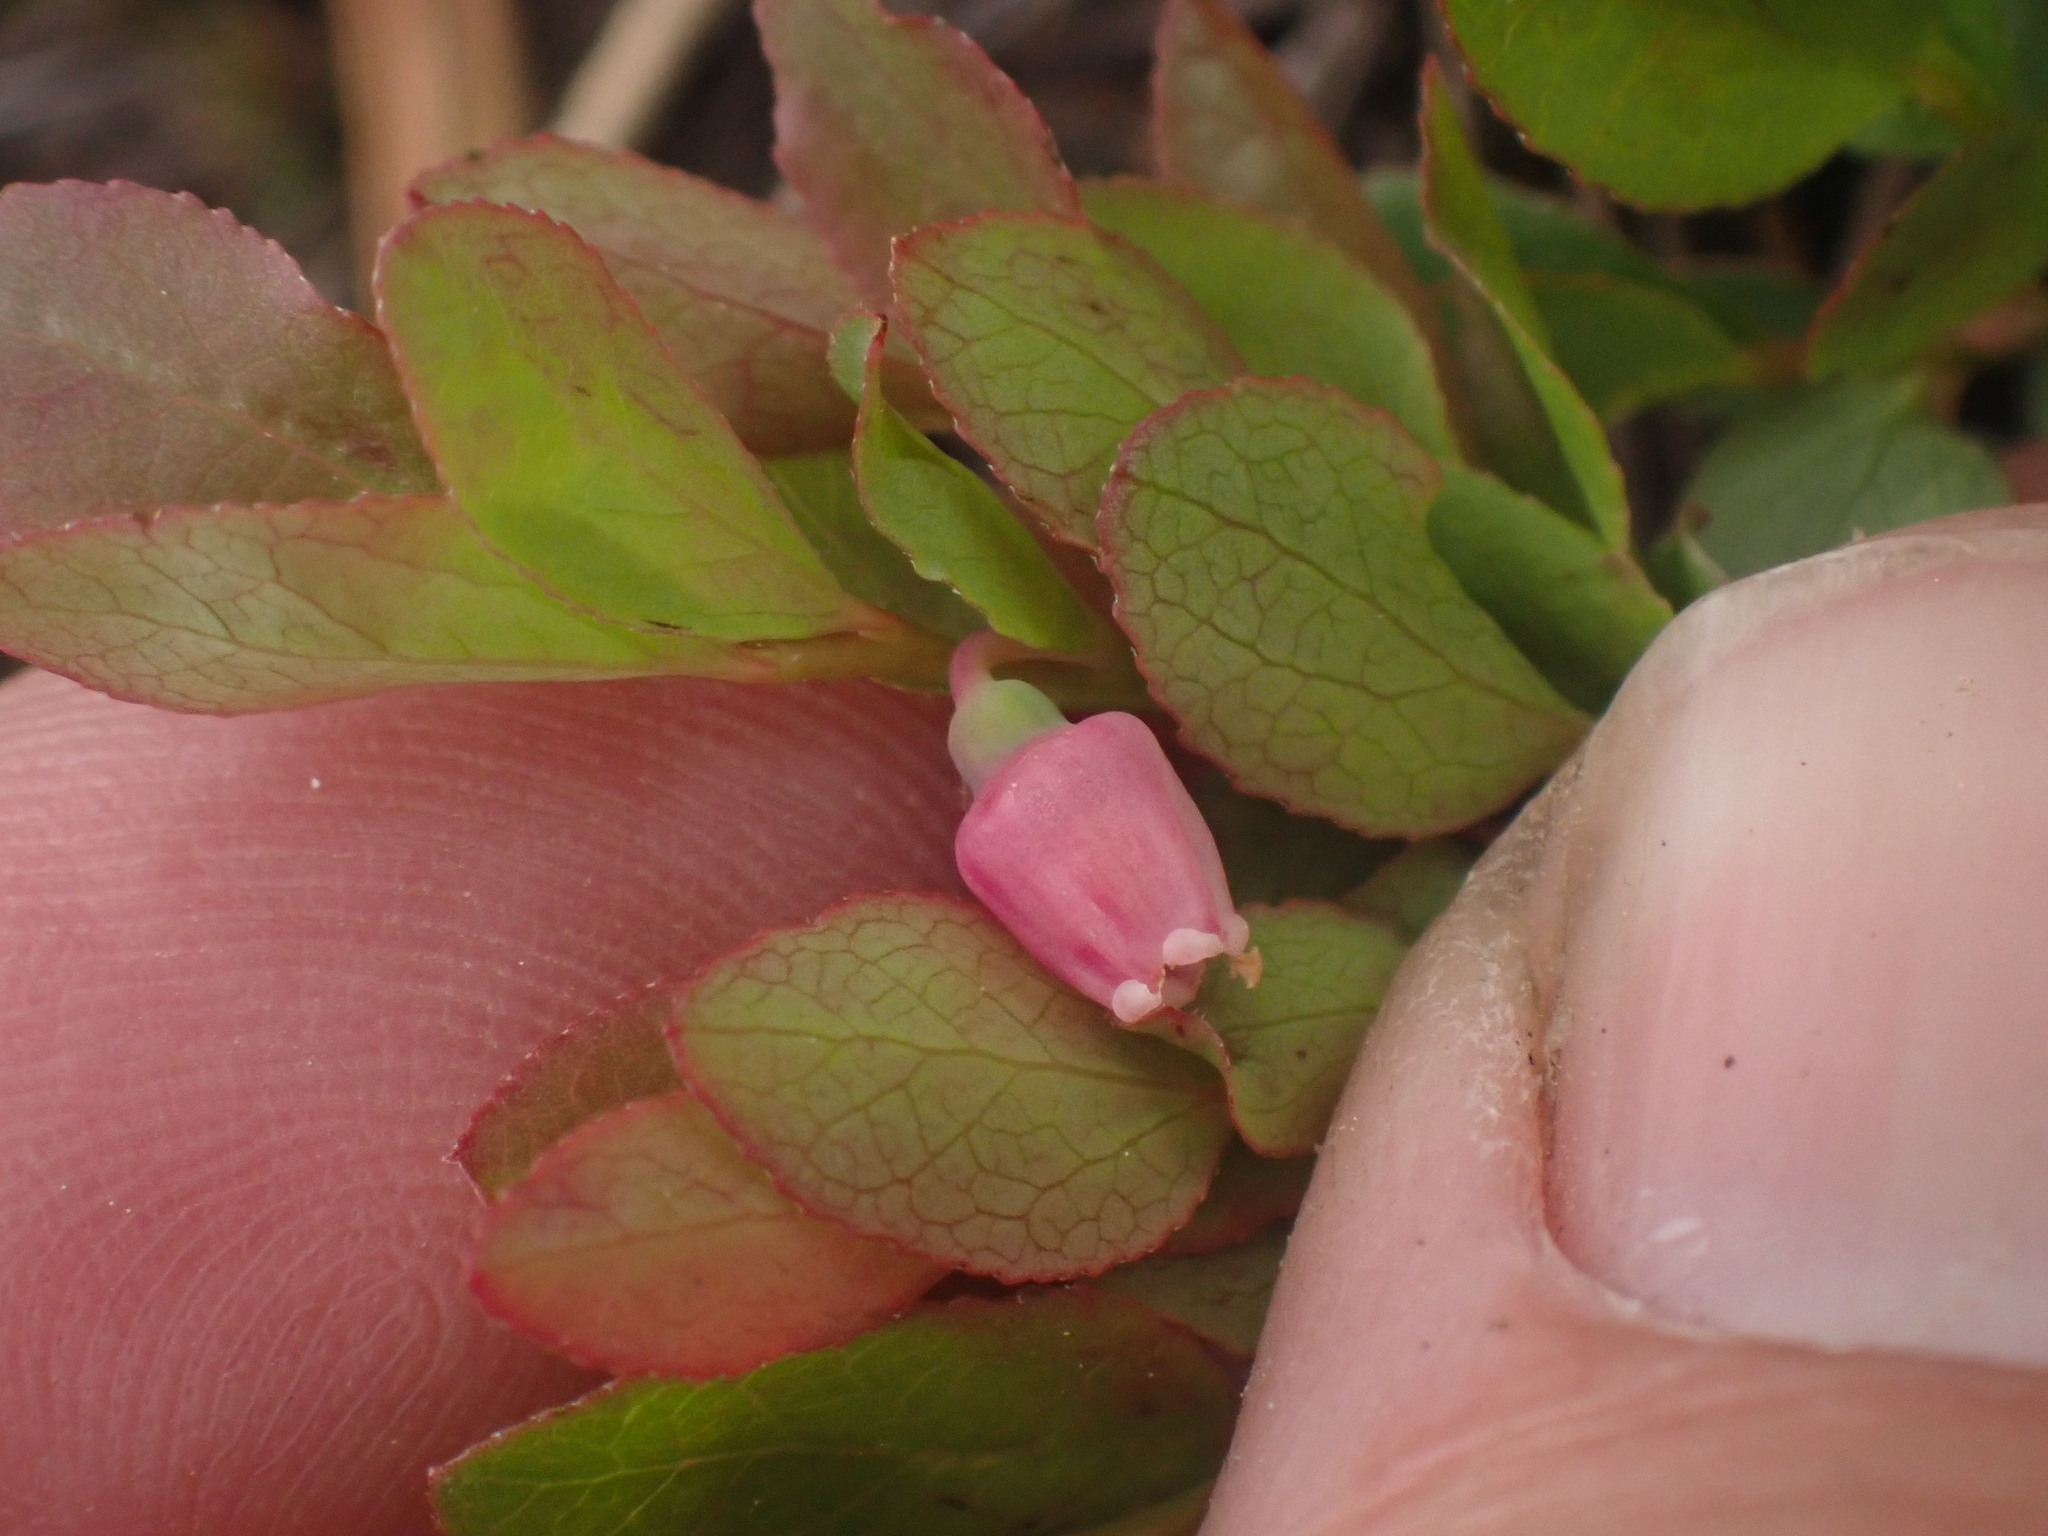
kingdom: Plantae
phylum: Tracheophyta
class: Magnoliopsida
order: Ericales
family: Ericaceae
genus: Vaccinium
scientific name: Vaccinium cespitosum
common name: Dwarf bilberry
